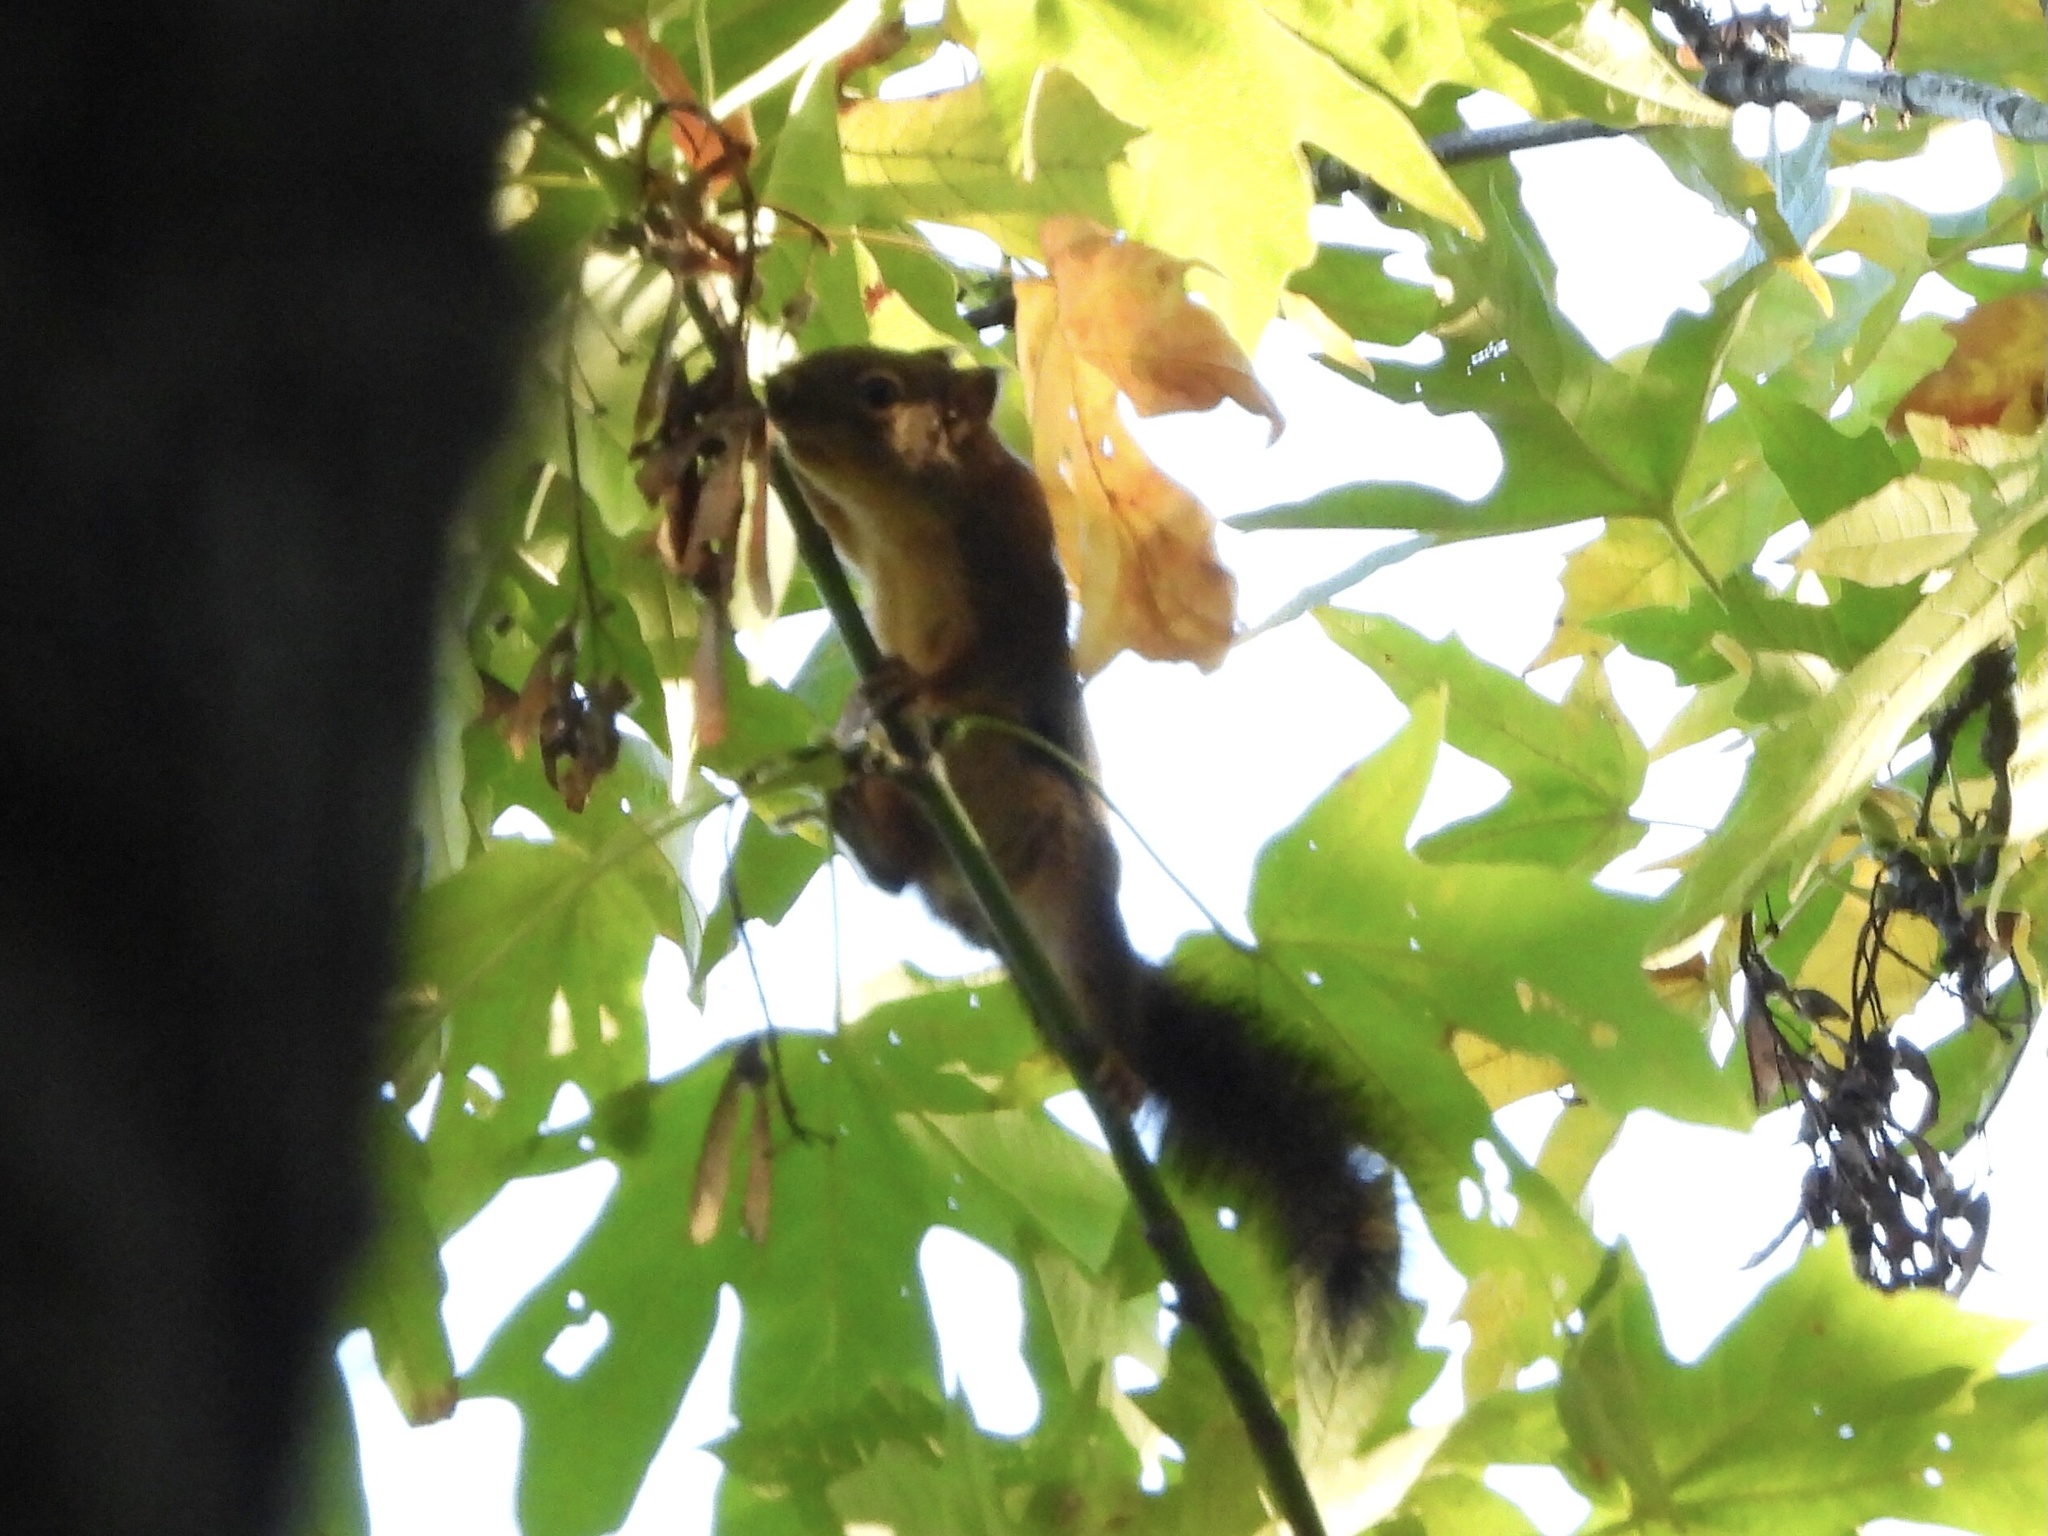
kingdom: Animalia
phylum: Chordata
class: Mammalia
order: Rodentia
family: Sciuridae
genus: Tamiasciurus
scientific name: Tamiasciurus douglasii
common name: Douglas's squirrel
